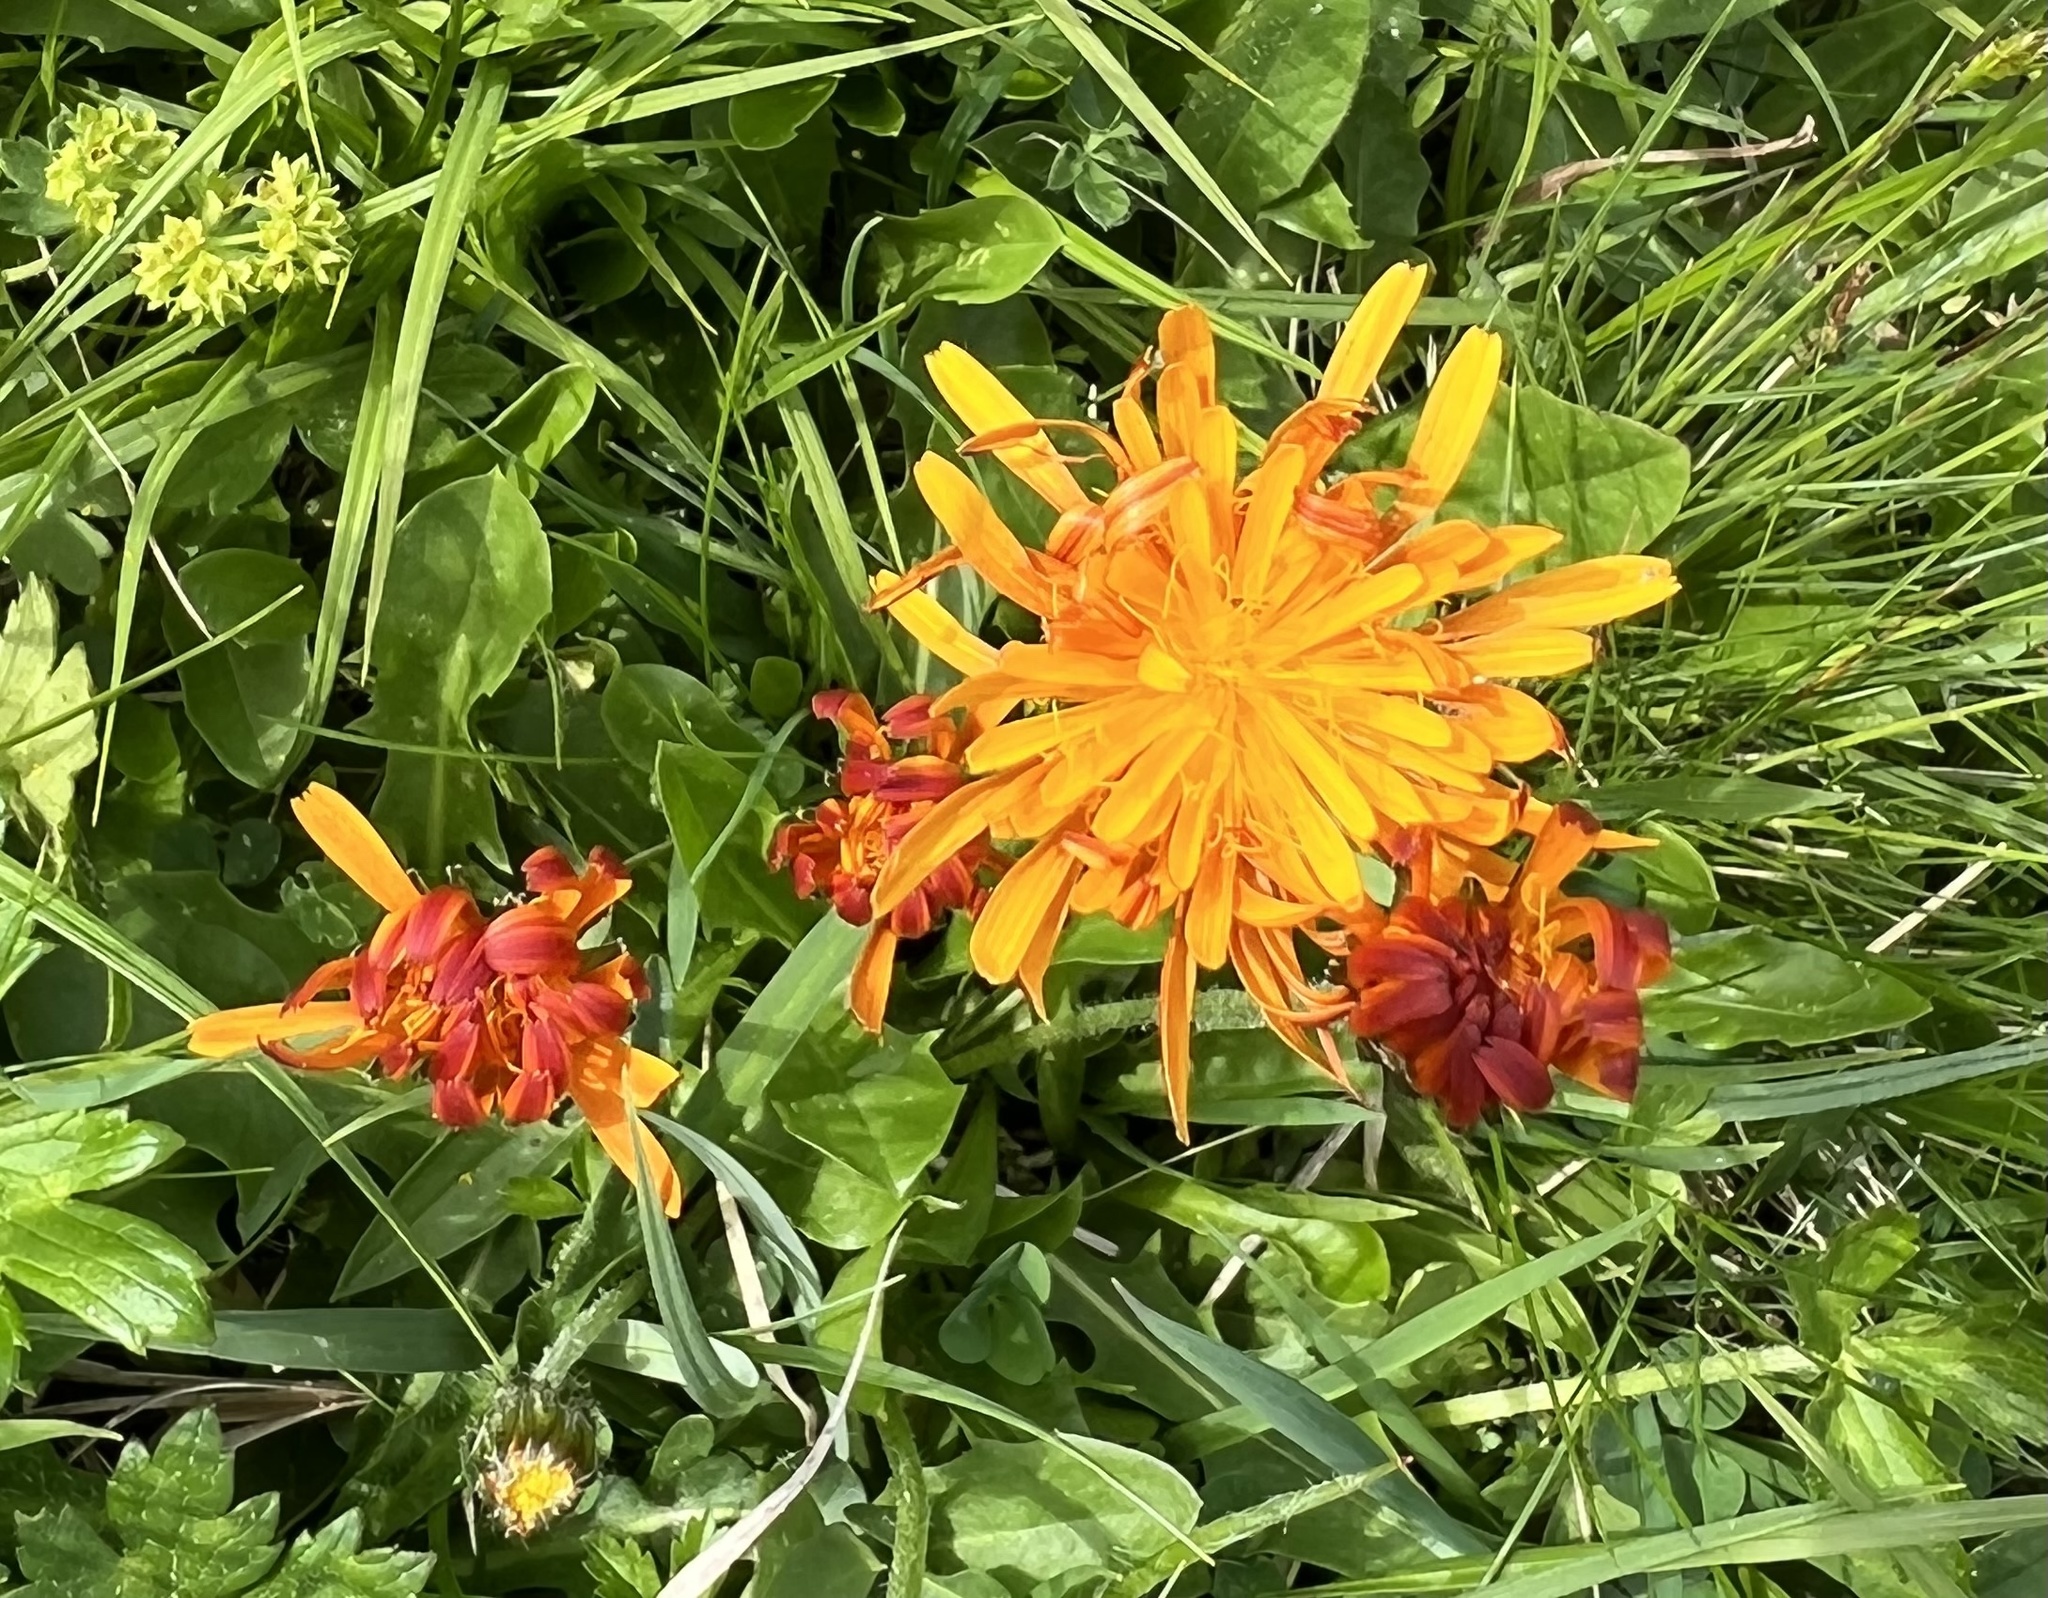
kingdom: Plantae
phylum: Tracheophyta
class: Magnoliopsida
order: Asterales
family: Asteraceae
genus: Crepis
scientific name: Crepis aurea
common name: Golden hawk's-beard
